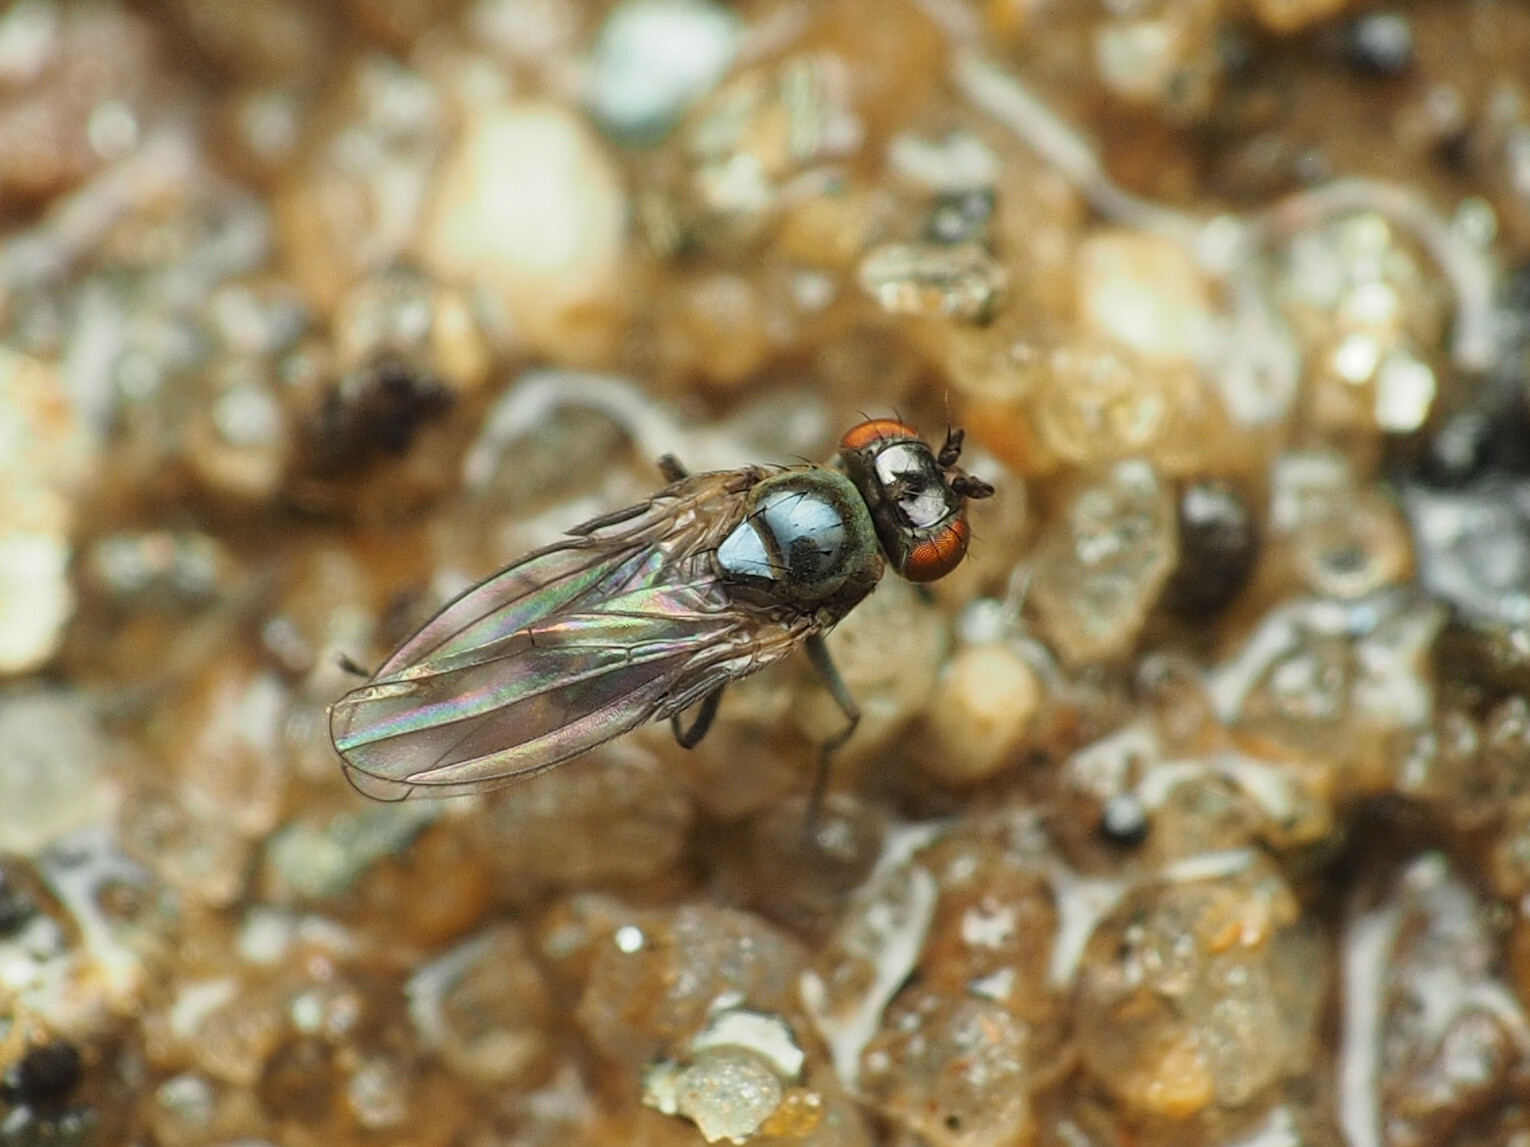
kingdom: Animalia
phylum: Arthropoda
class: Insecta
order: Diptera
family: Ephydridae
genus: Scatella
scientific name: Scatella favillacea
